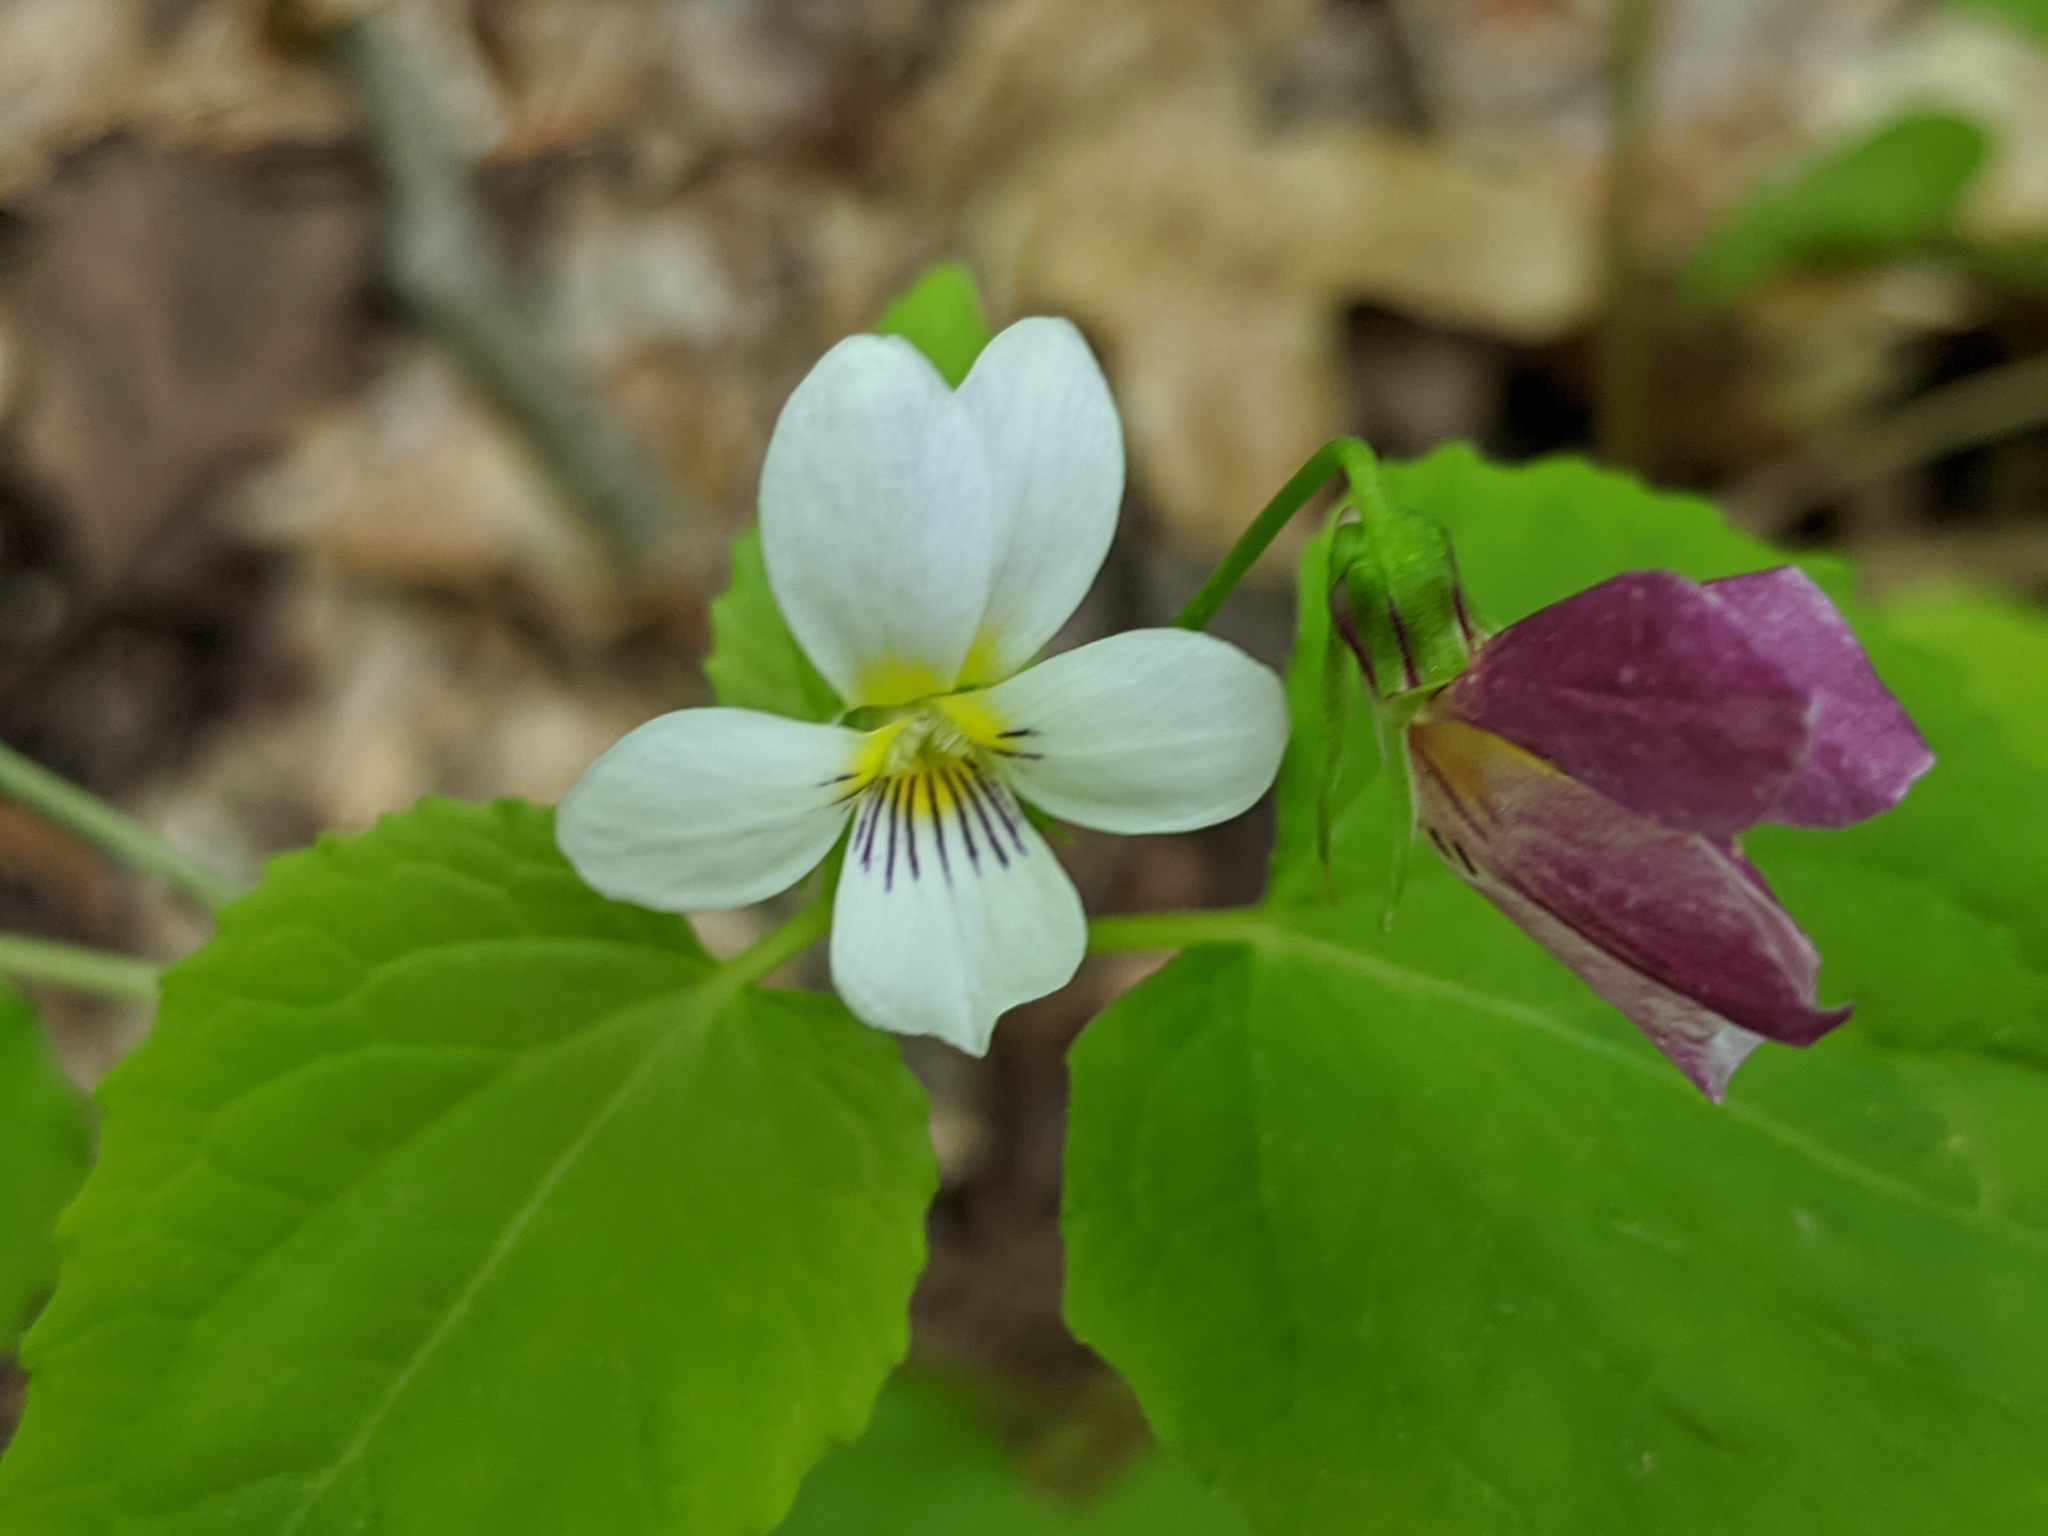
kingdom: Plantae
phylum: Tracheophyta
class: Magnoliopsida
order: Malpighiales
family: Violaceae
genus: Viola
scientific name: Viola canadensis
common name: Canada violet
